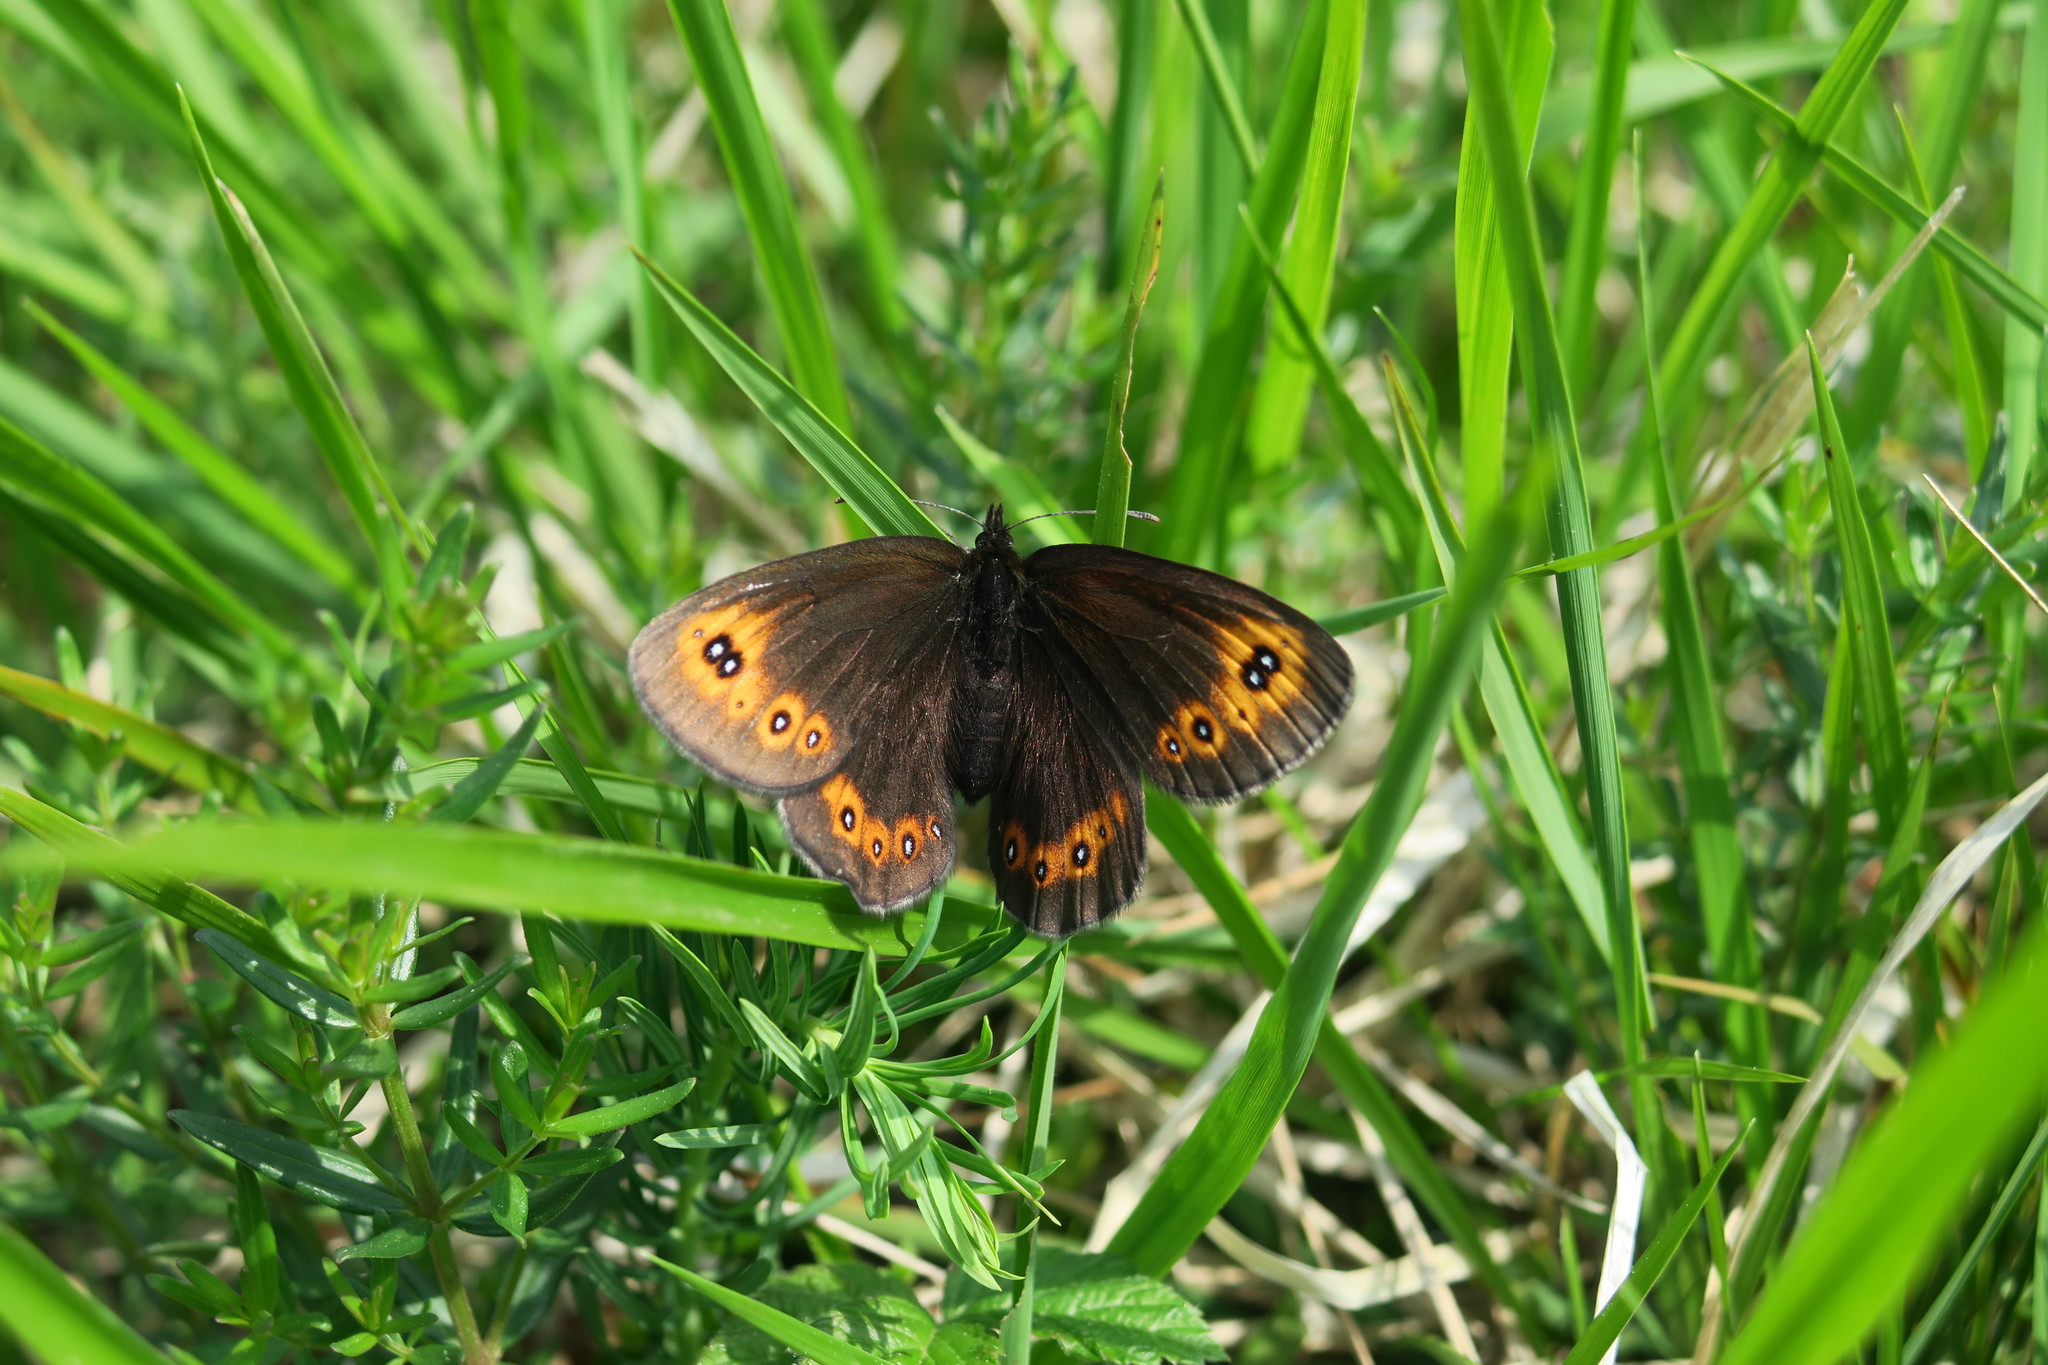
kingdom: Animalia
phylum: Arthropoda
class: Insecta
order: Lepidoptera
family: Nymphalidae
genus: Erebia
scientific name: Erebia medusa
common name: Woodland ringlet
